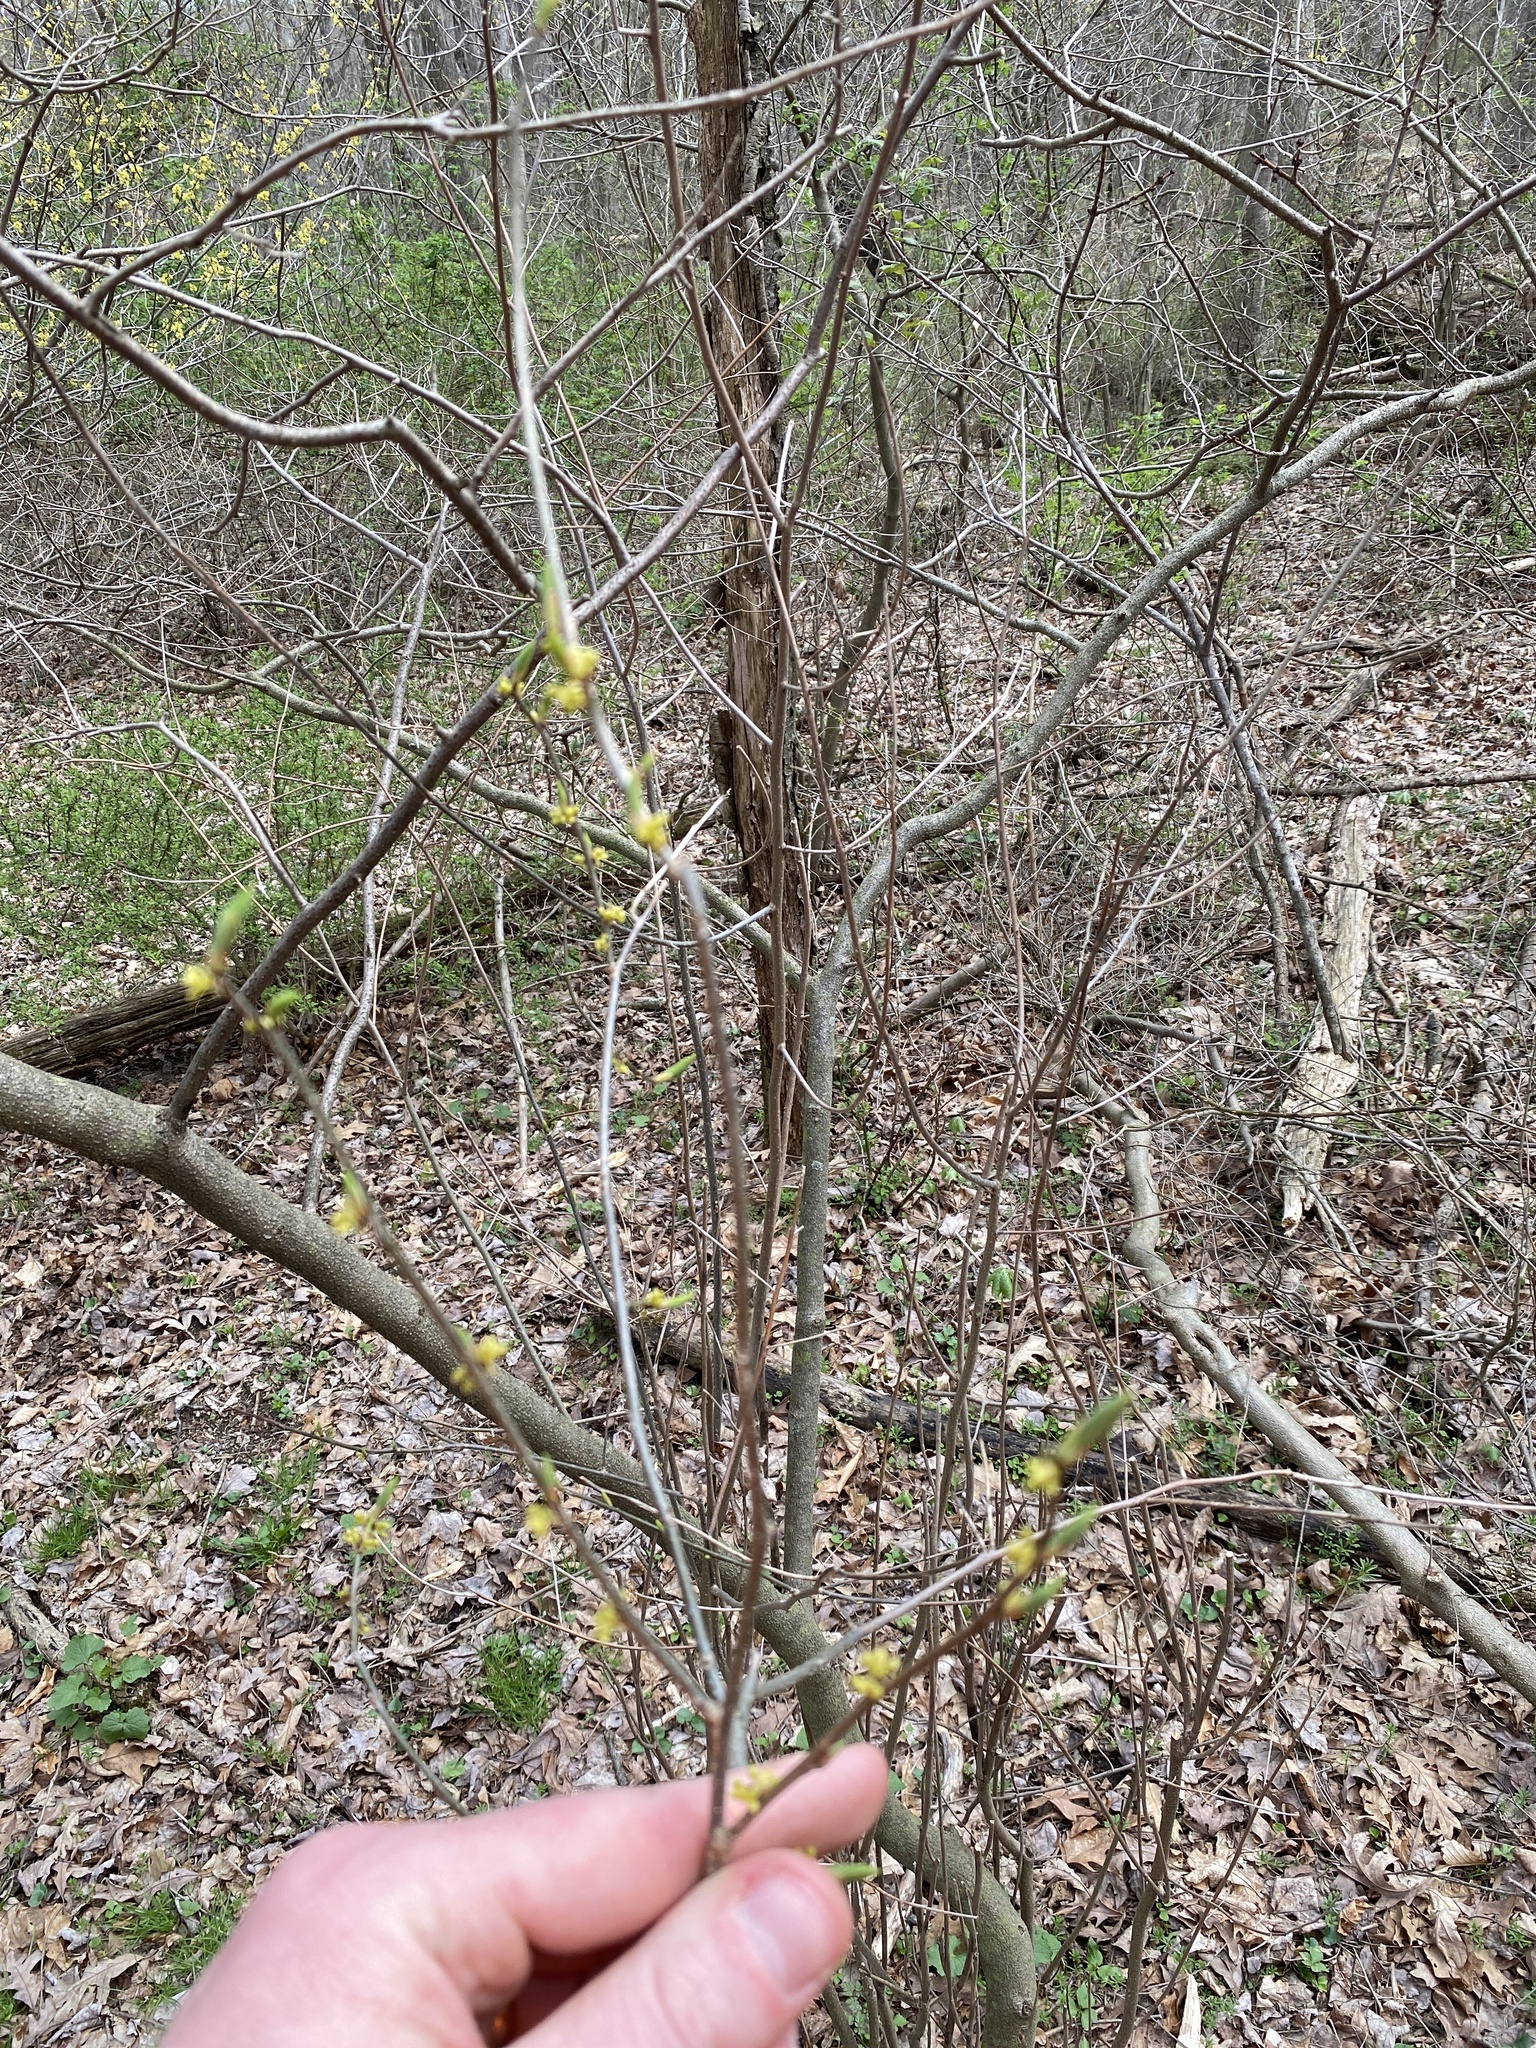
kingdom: Plantae
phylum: Tracheophyta
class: Magnoliopsida
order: Laurales
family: Lauraceae
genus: Lindera
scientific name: Lindera benzoin
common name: Spicebush
